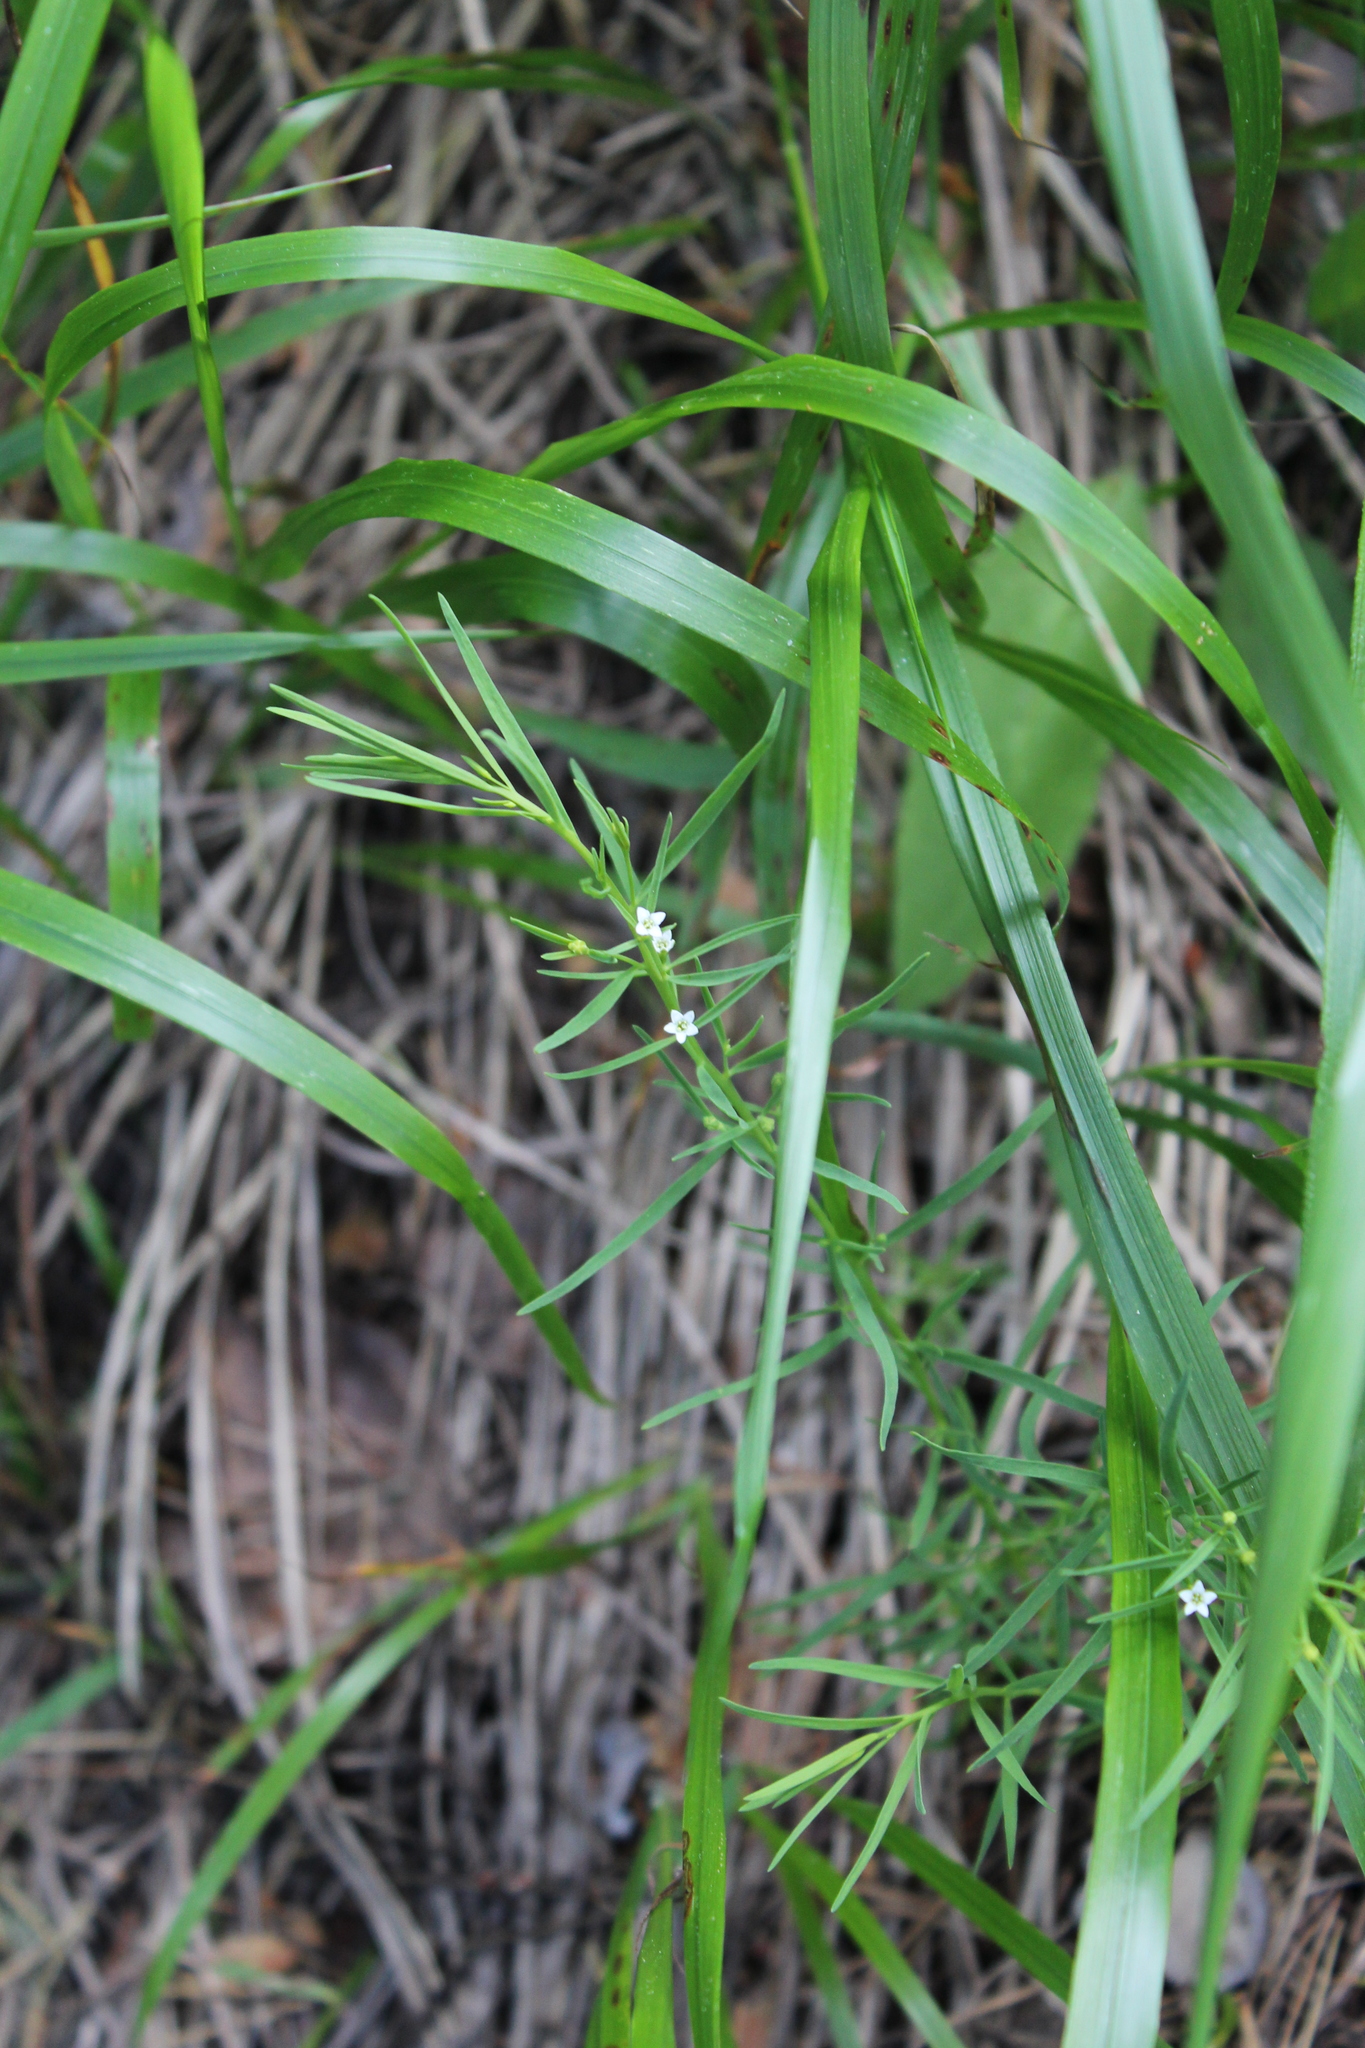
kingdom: Plantae
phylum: Tracheophyta
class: Magnoliopsida
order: Santalales
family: Thesiaceae
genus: Thesium
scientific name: Thesium ramosum
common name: Field thesium
